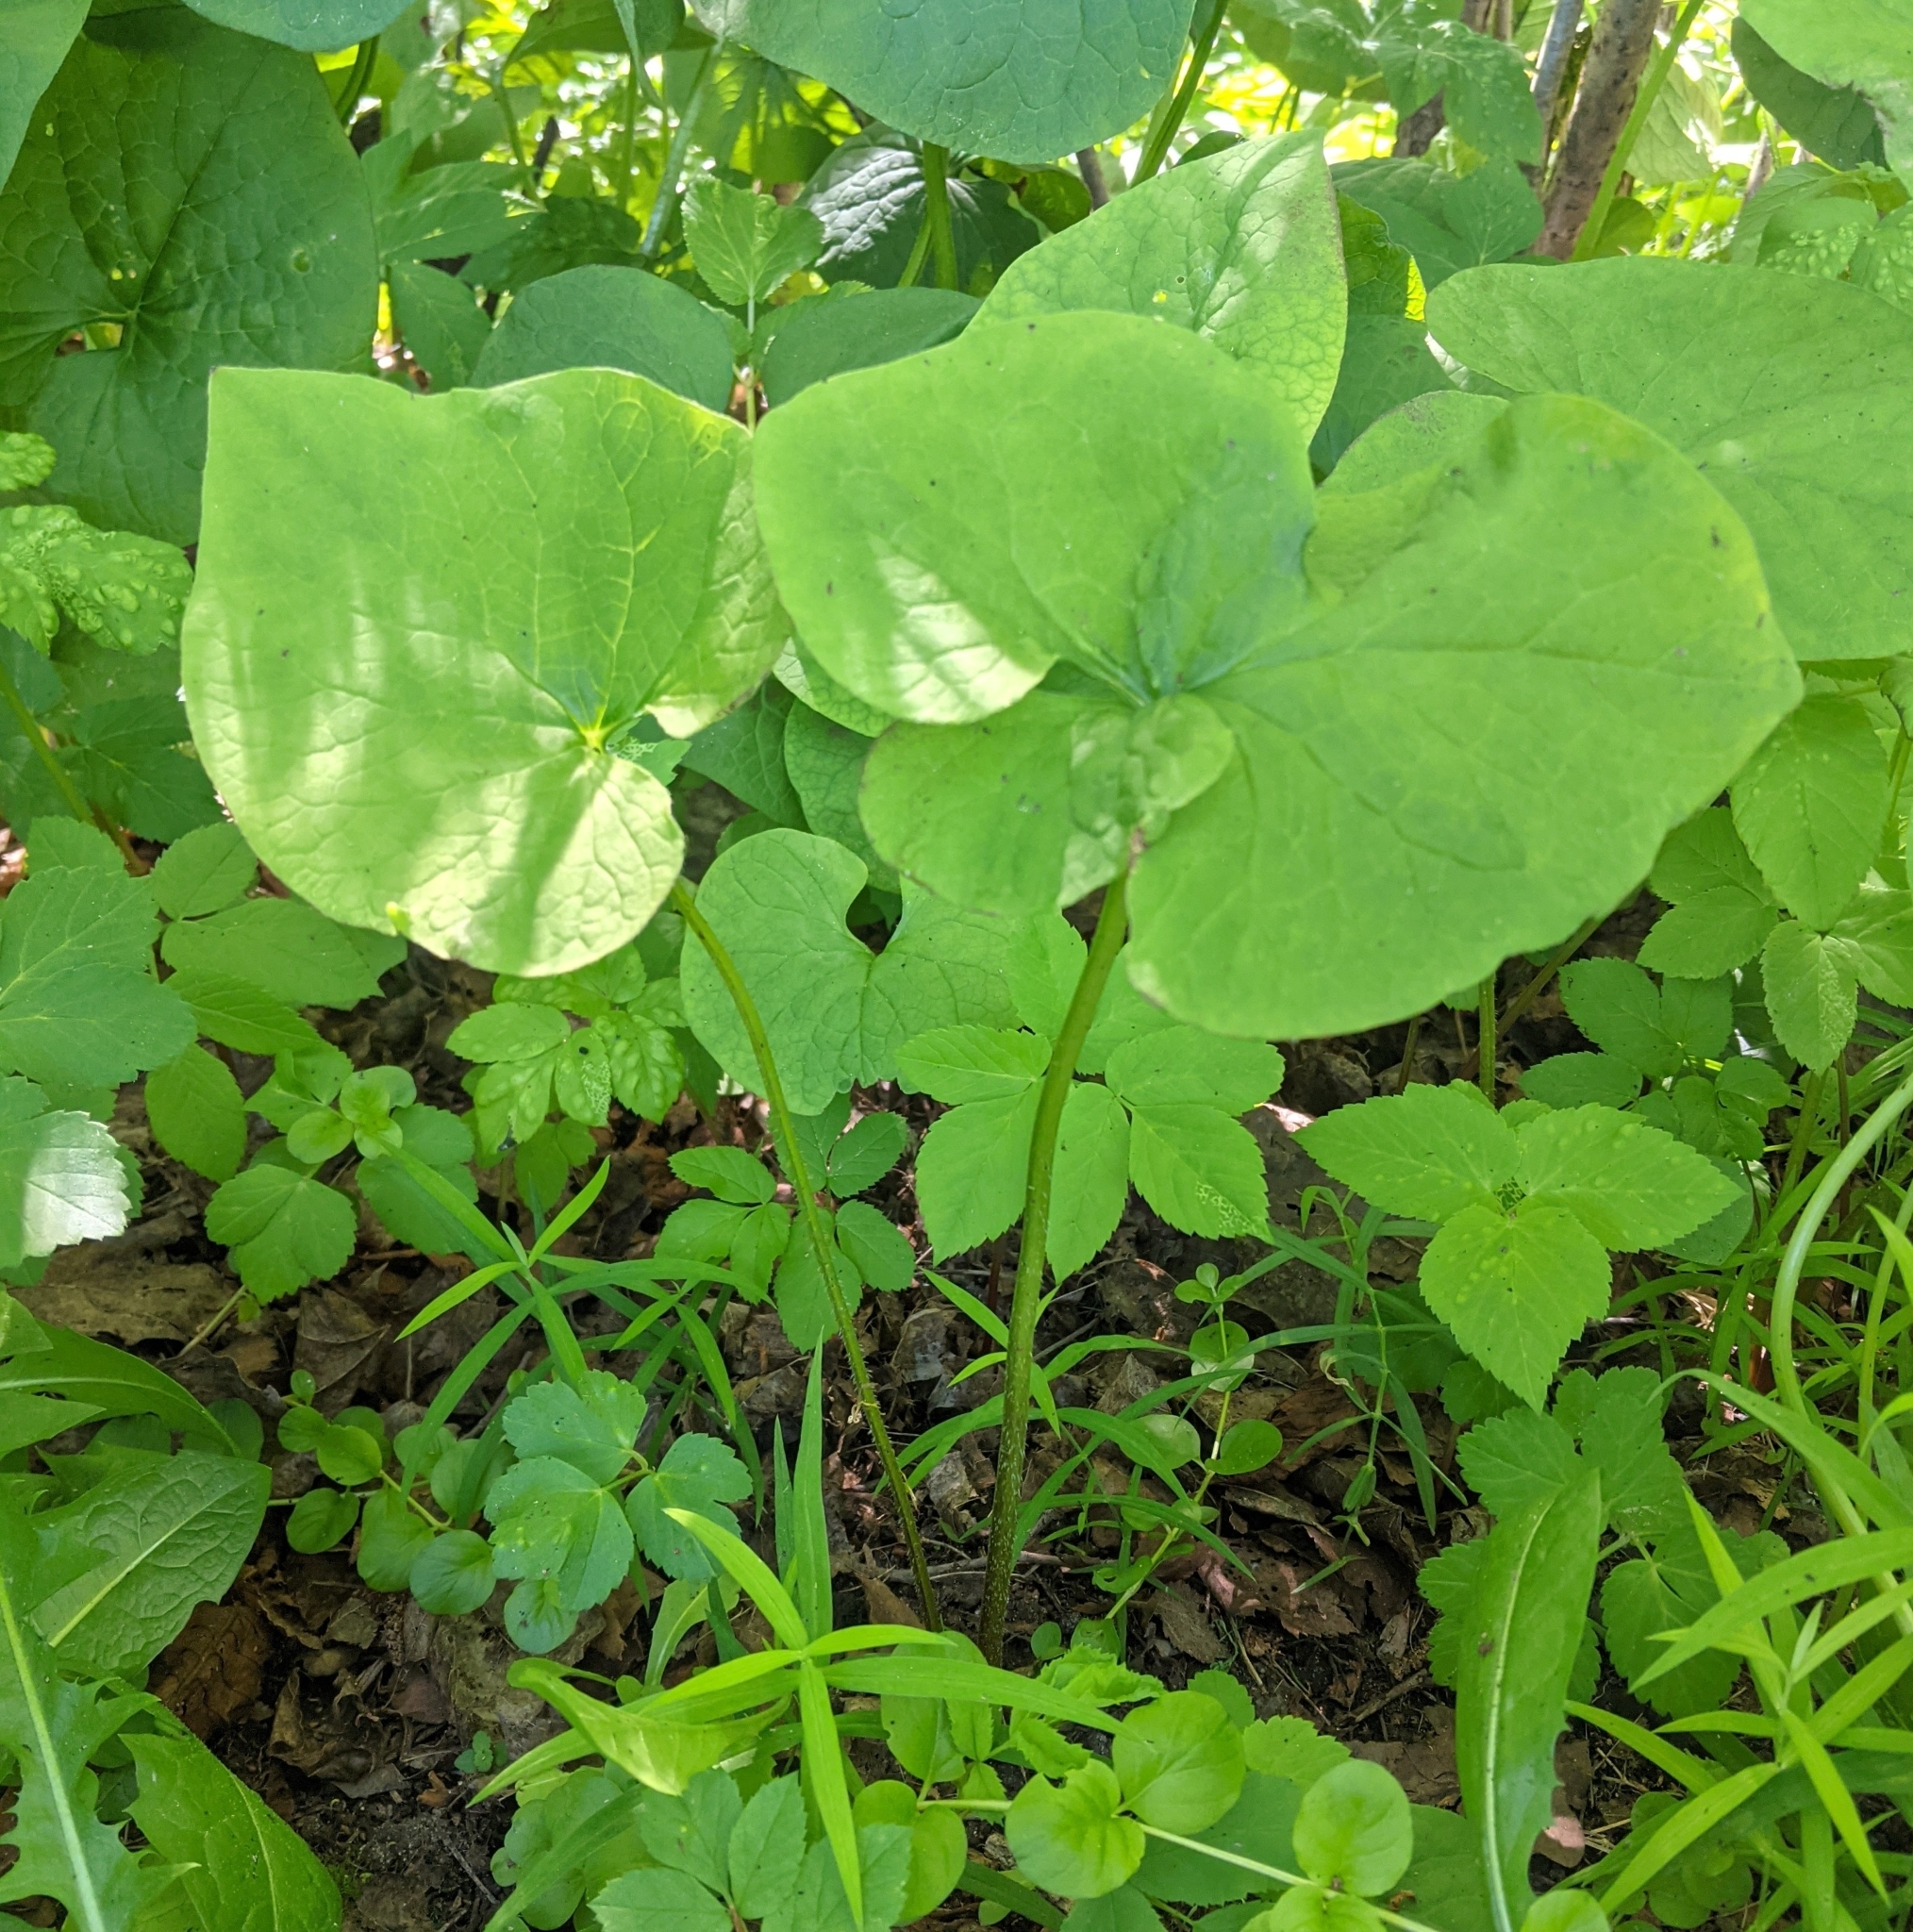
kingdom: Plantae
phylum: Tracheophyta
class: Magnoliopsida
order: Boraginales
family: Boraginaceae
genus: Brunnera
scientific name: Brunnera sibirica
